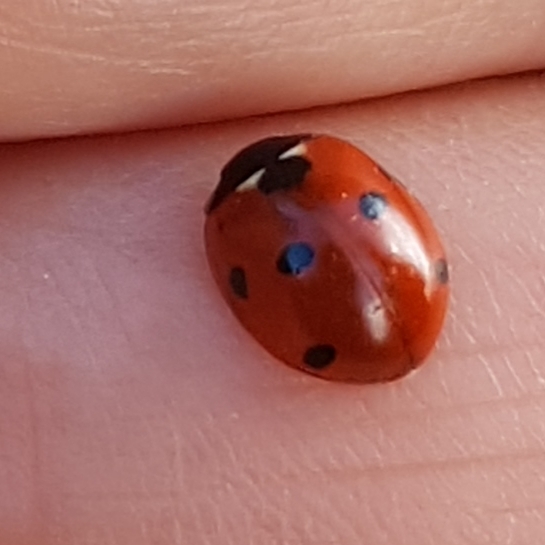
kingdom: Animalia
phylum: Arthropoda
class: Insecta
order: Coleoptera
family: Coccinellidae
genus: Coccinella
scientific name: Coccinella septempunctata
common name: Sevenspotted lady beetle
